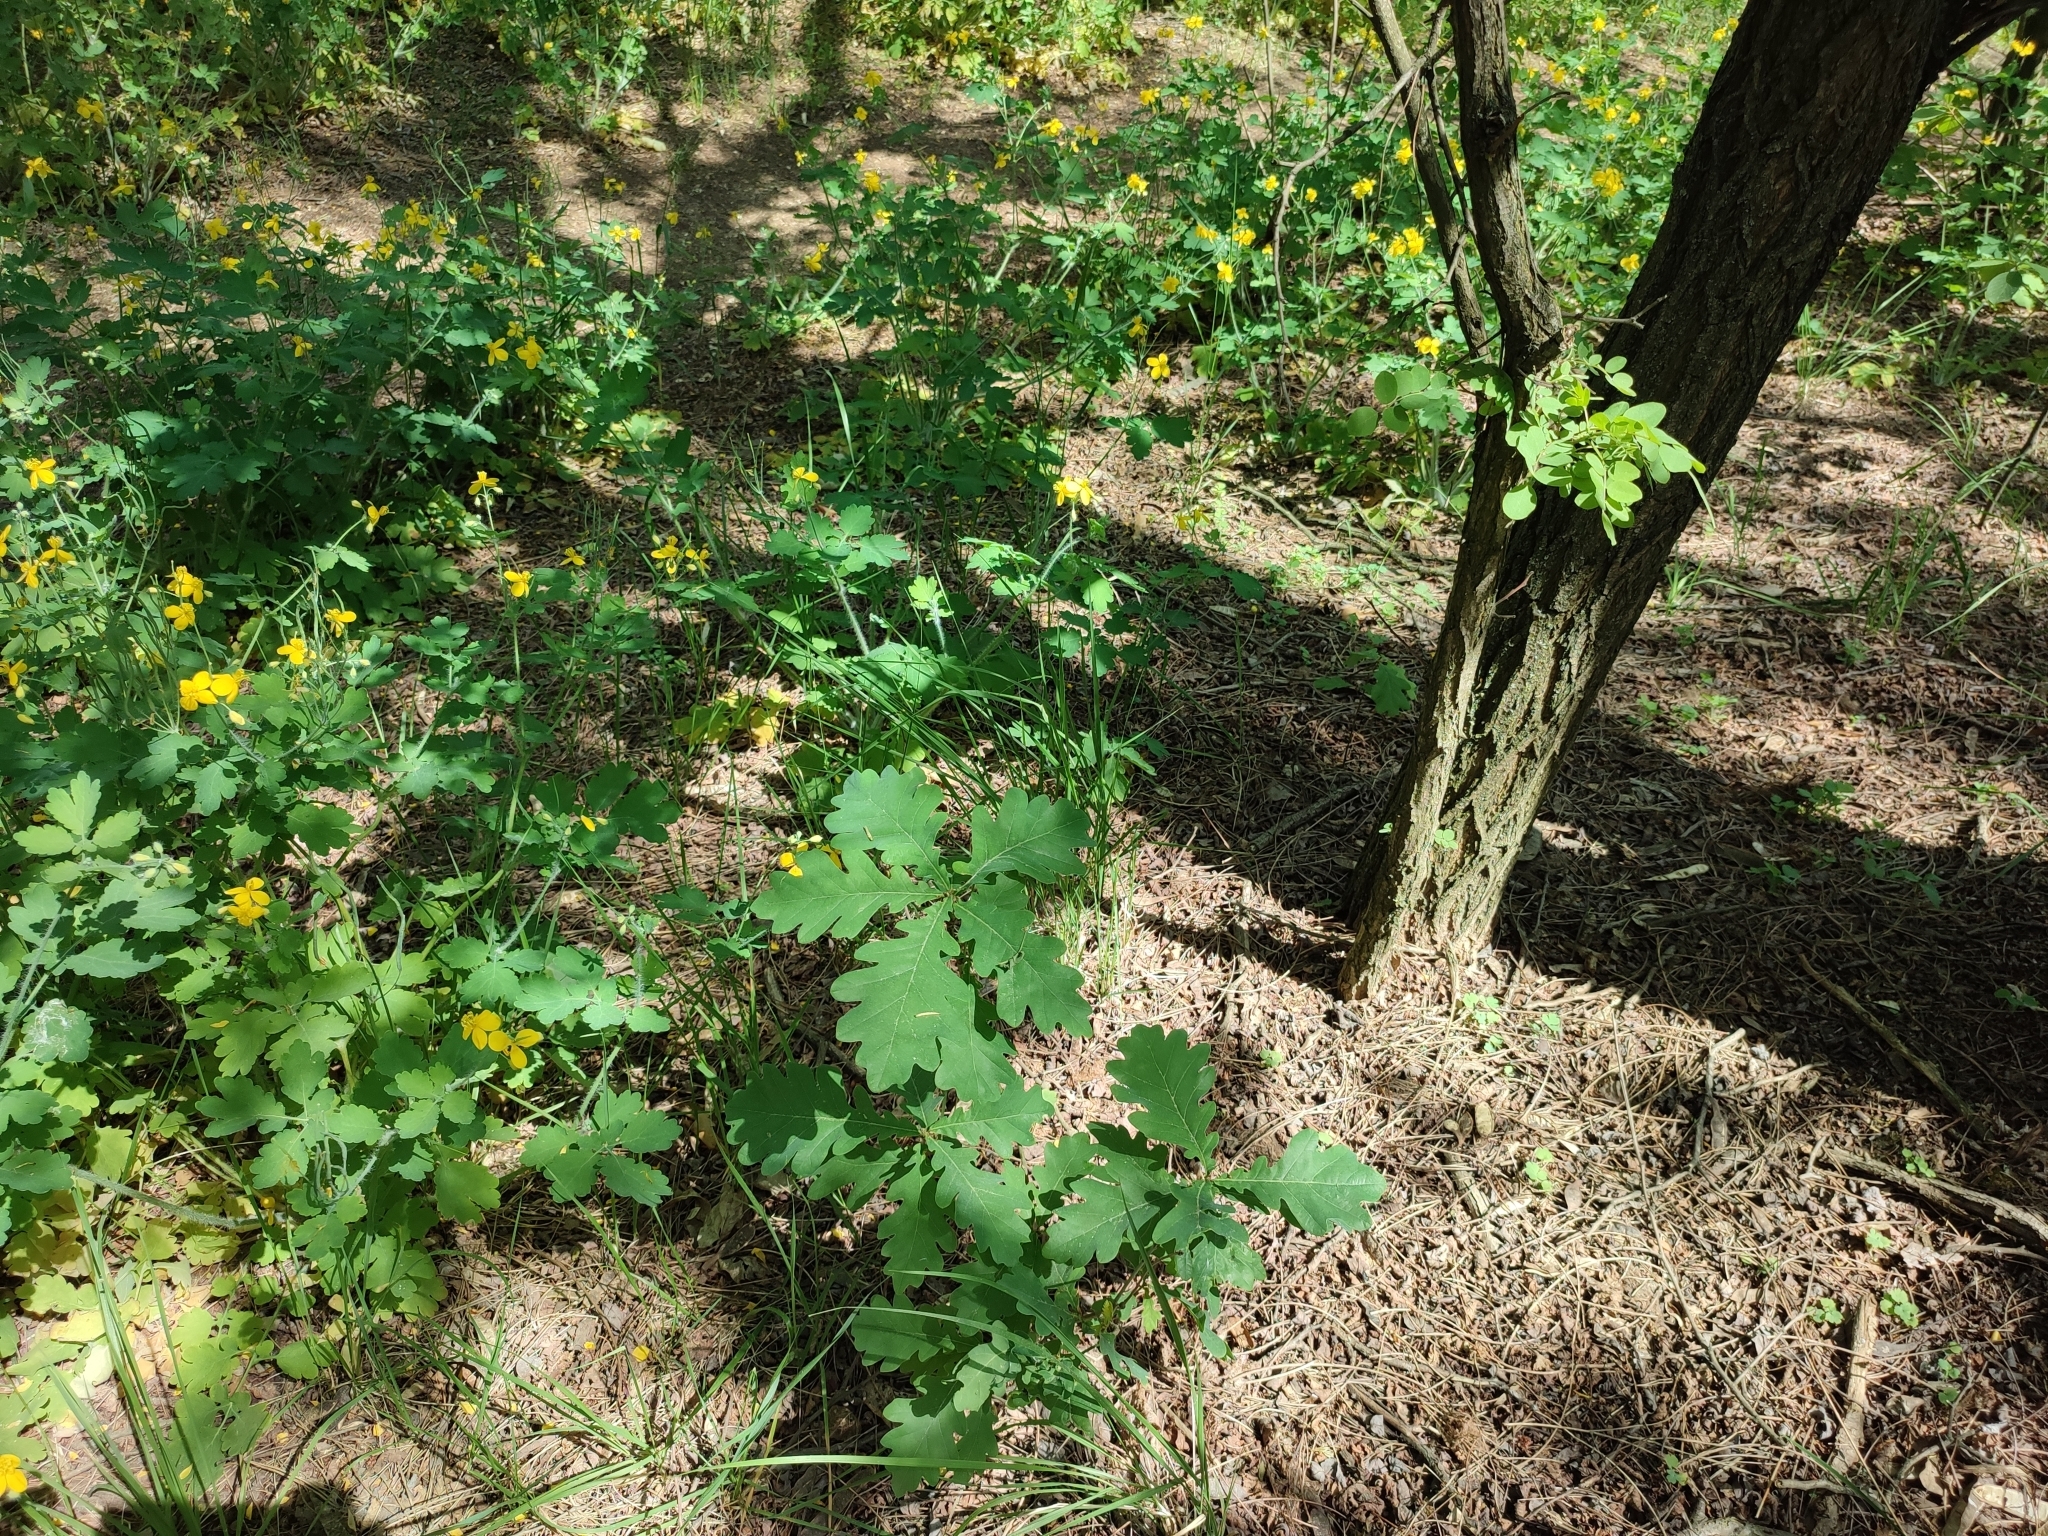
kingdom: Plantae
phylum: Tracheophyta
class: Magnoliopsida
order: Fagales
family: Fagaceae
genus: Quercus
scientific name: Quercus robur
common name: Pedunculate oak
